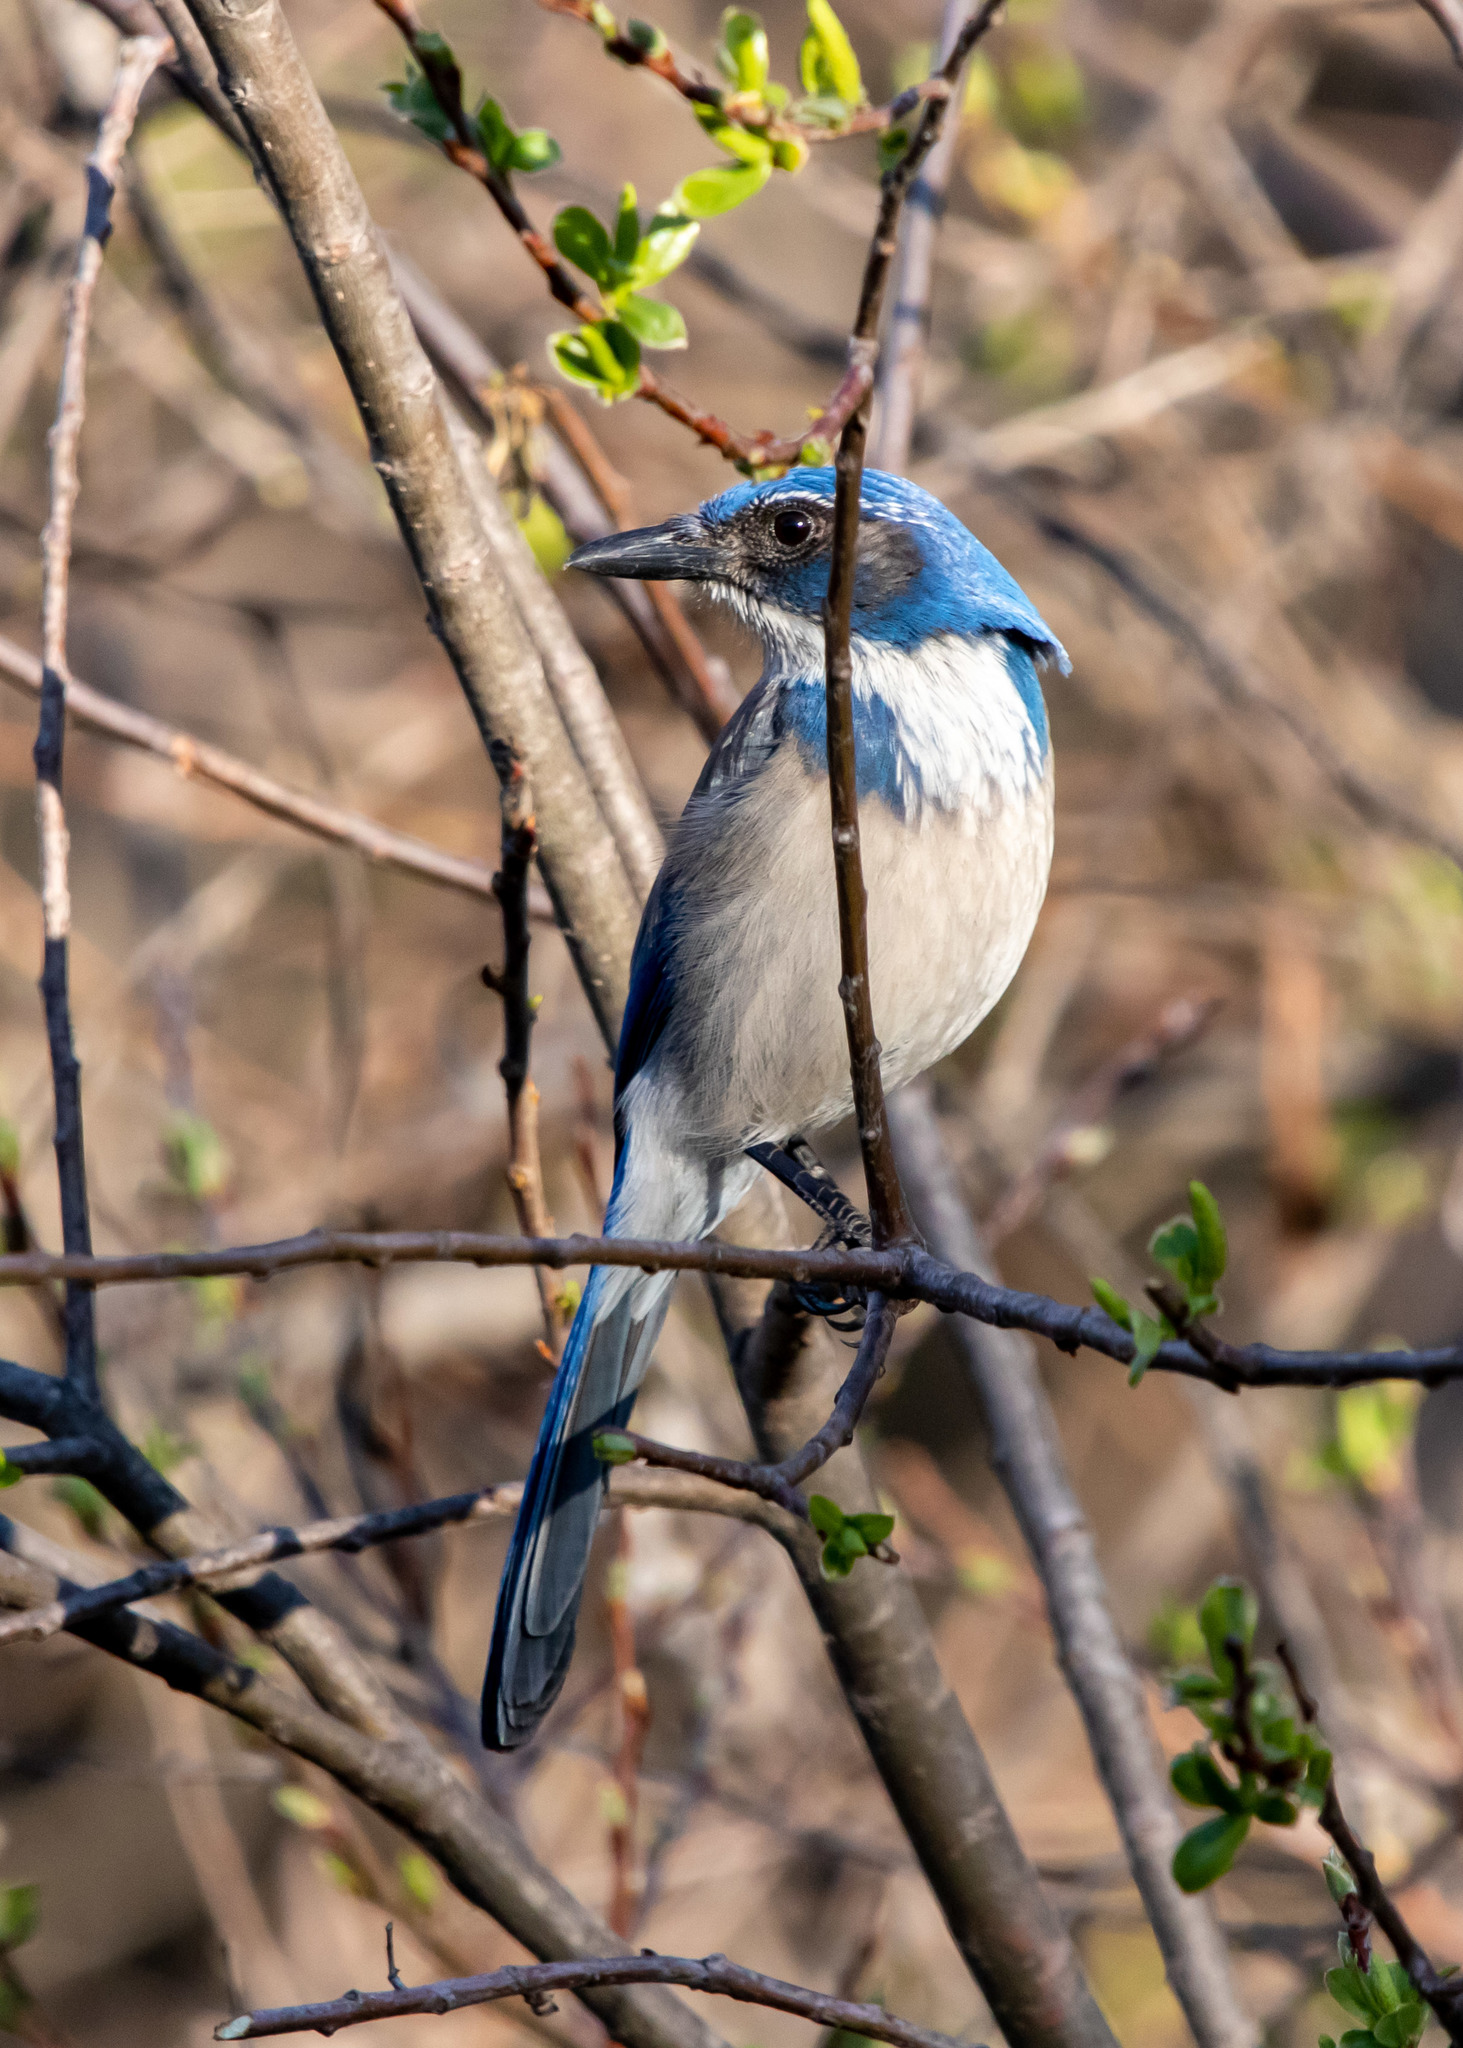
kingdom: Animalia
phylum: Chordata
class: Aves
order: Passeriformes
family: Corvidae
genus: Aphelocoma
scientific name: Aphelocoma californica
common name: California scrub-jay
